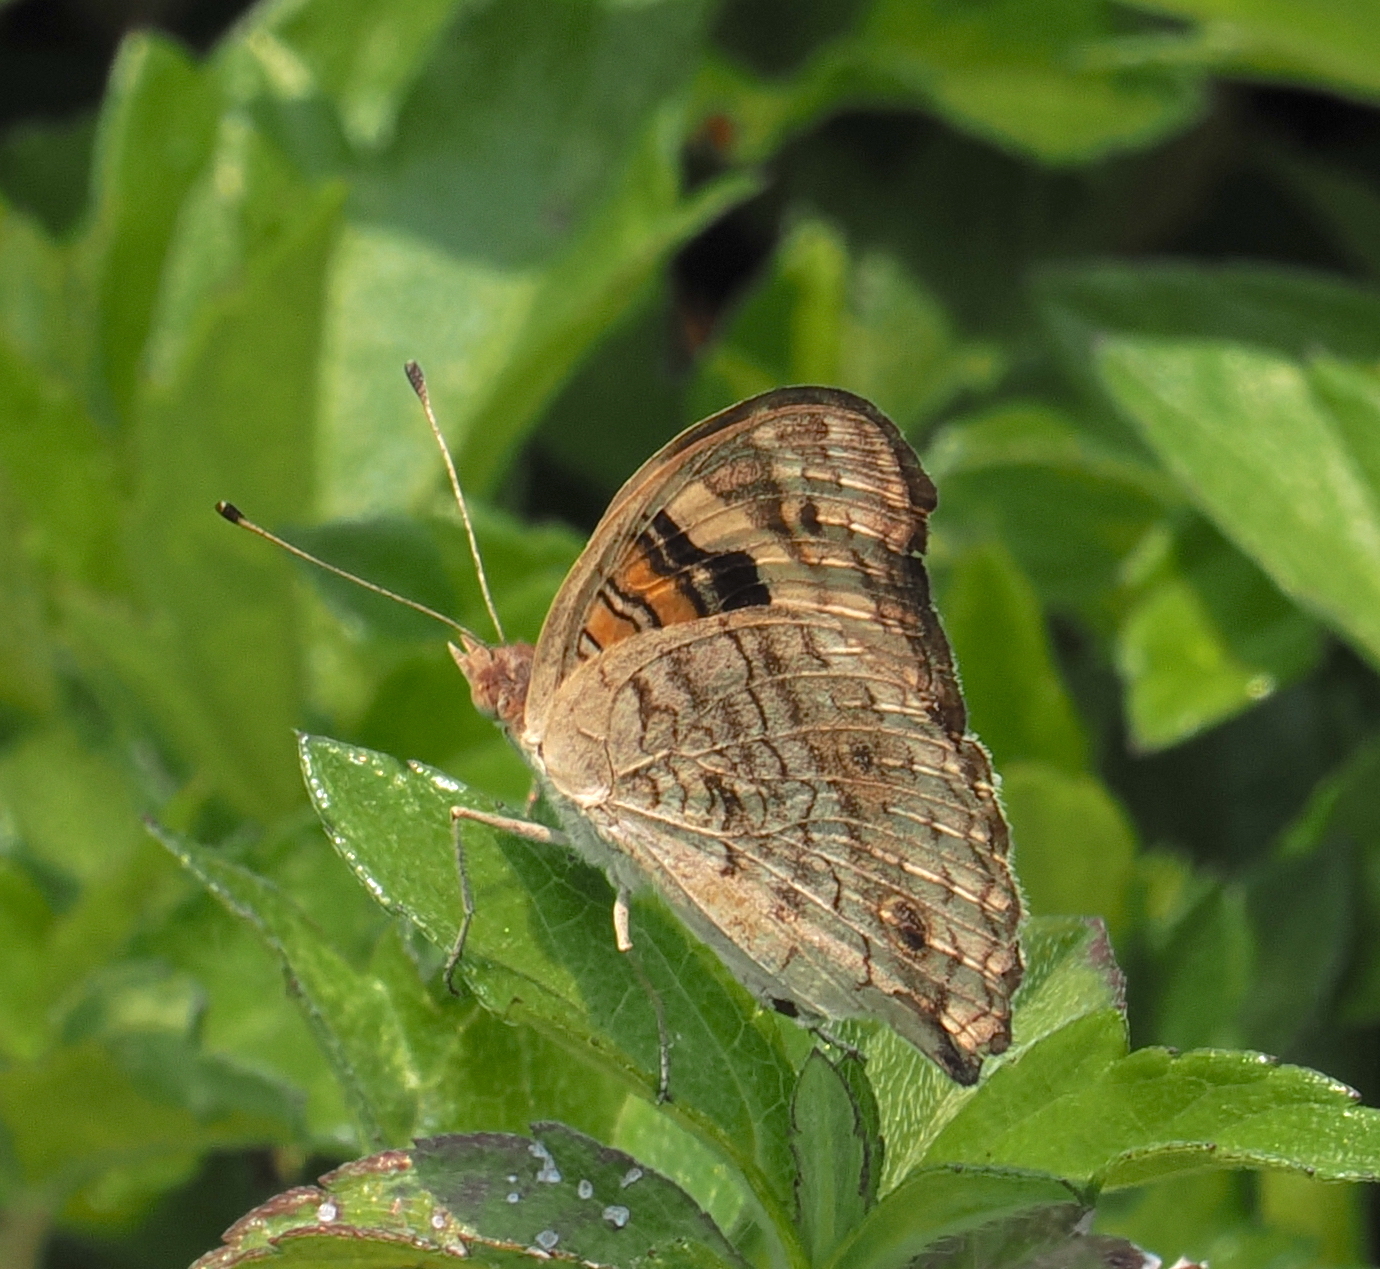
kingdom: Animalia
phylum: Arthropoda
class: Insecta
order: Lepidoptera
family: Nymphalidae
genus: Junonia
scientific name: Junonia orithya
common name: Blue pansy
